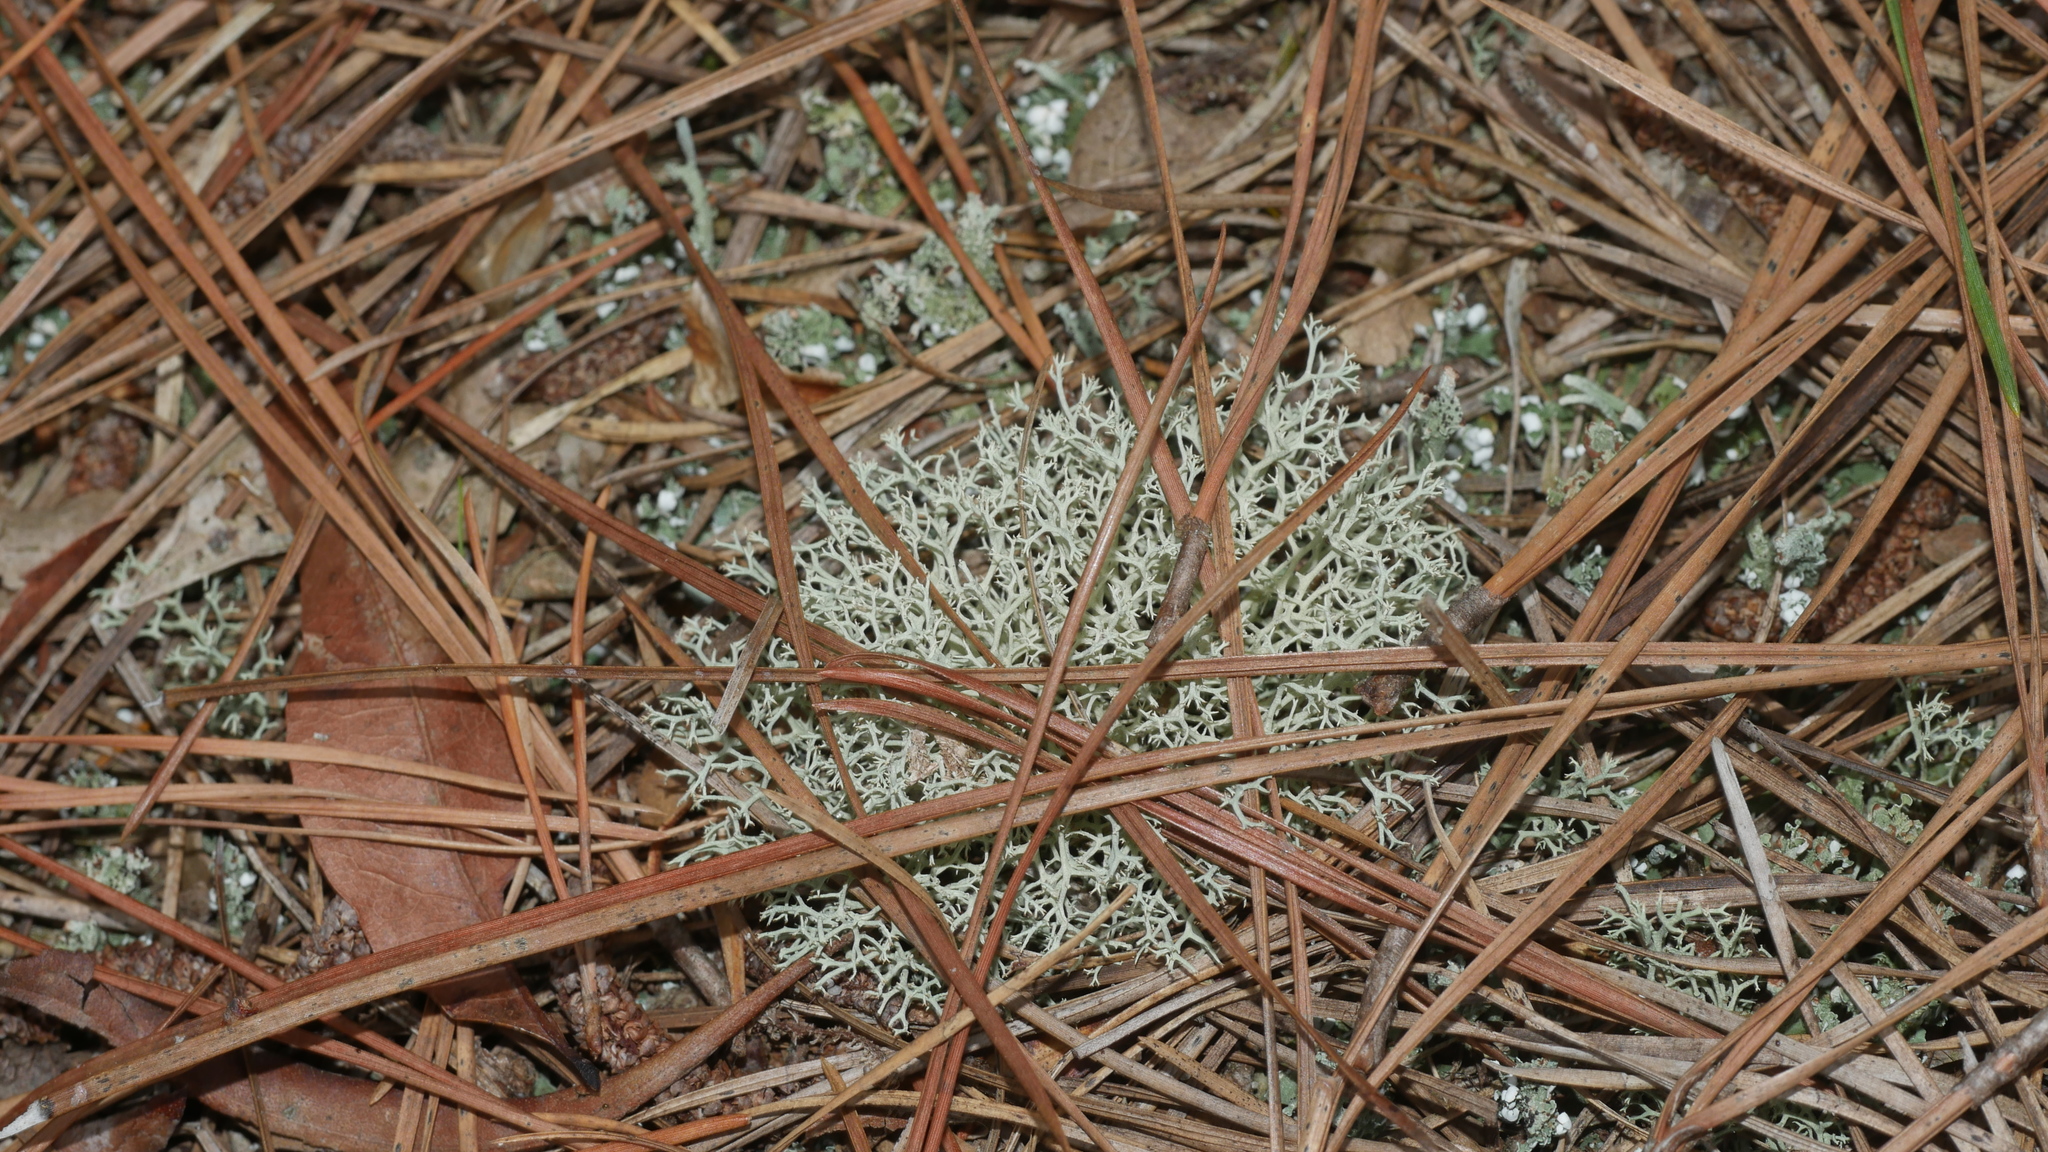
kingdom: Fungi
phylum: Ascomycota
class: Lecanoromycetes
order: Lecanorales
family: Cladoniaceae
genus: Cladonia
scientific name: Cladonia subtenuis
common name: Dixie reindeer lichen
